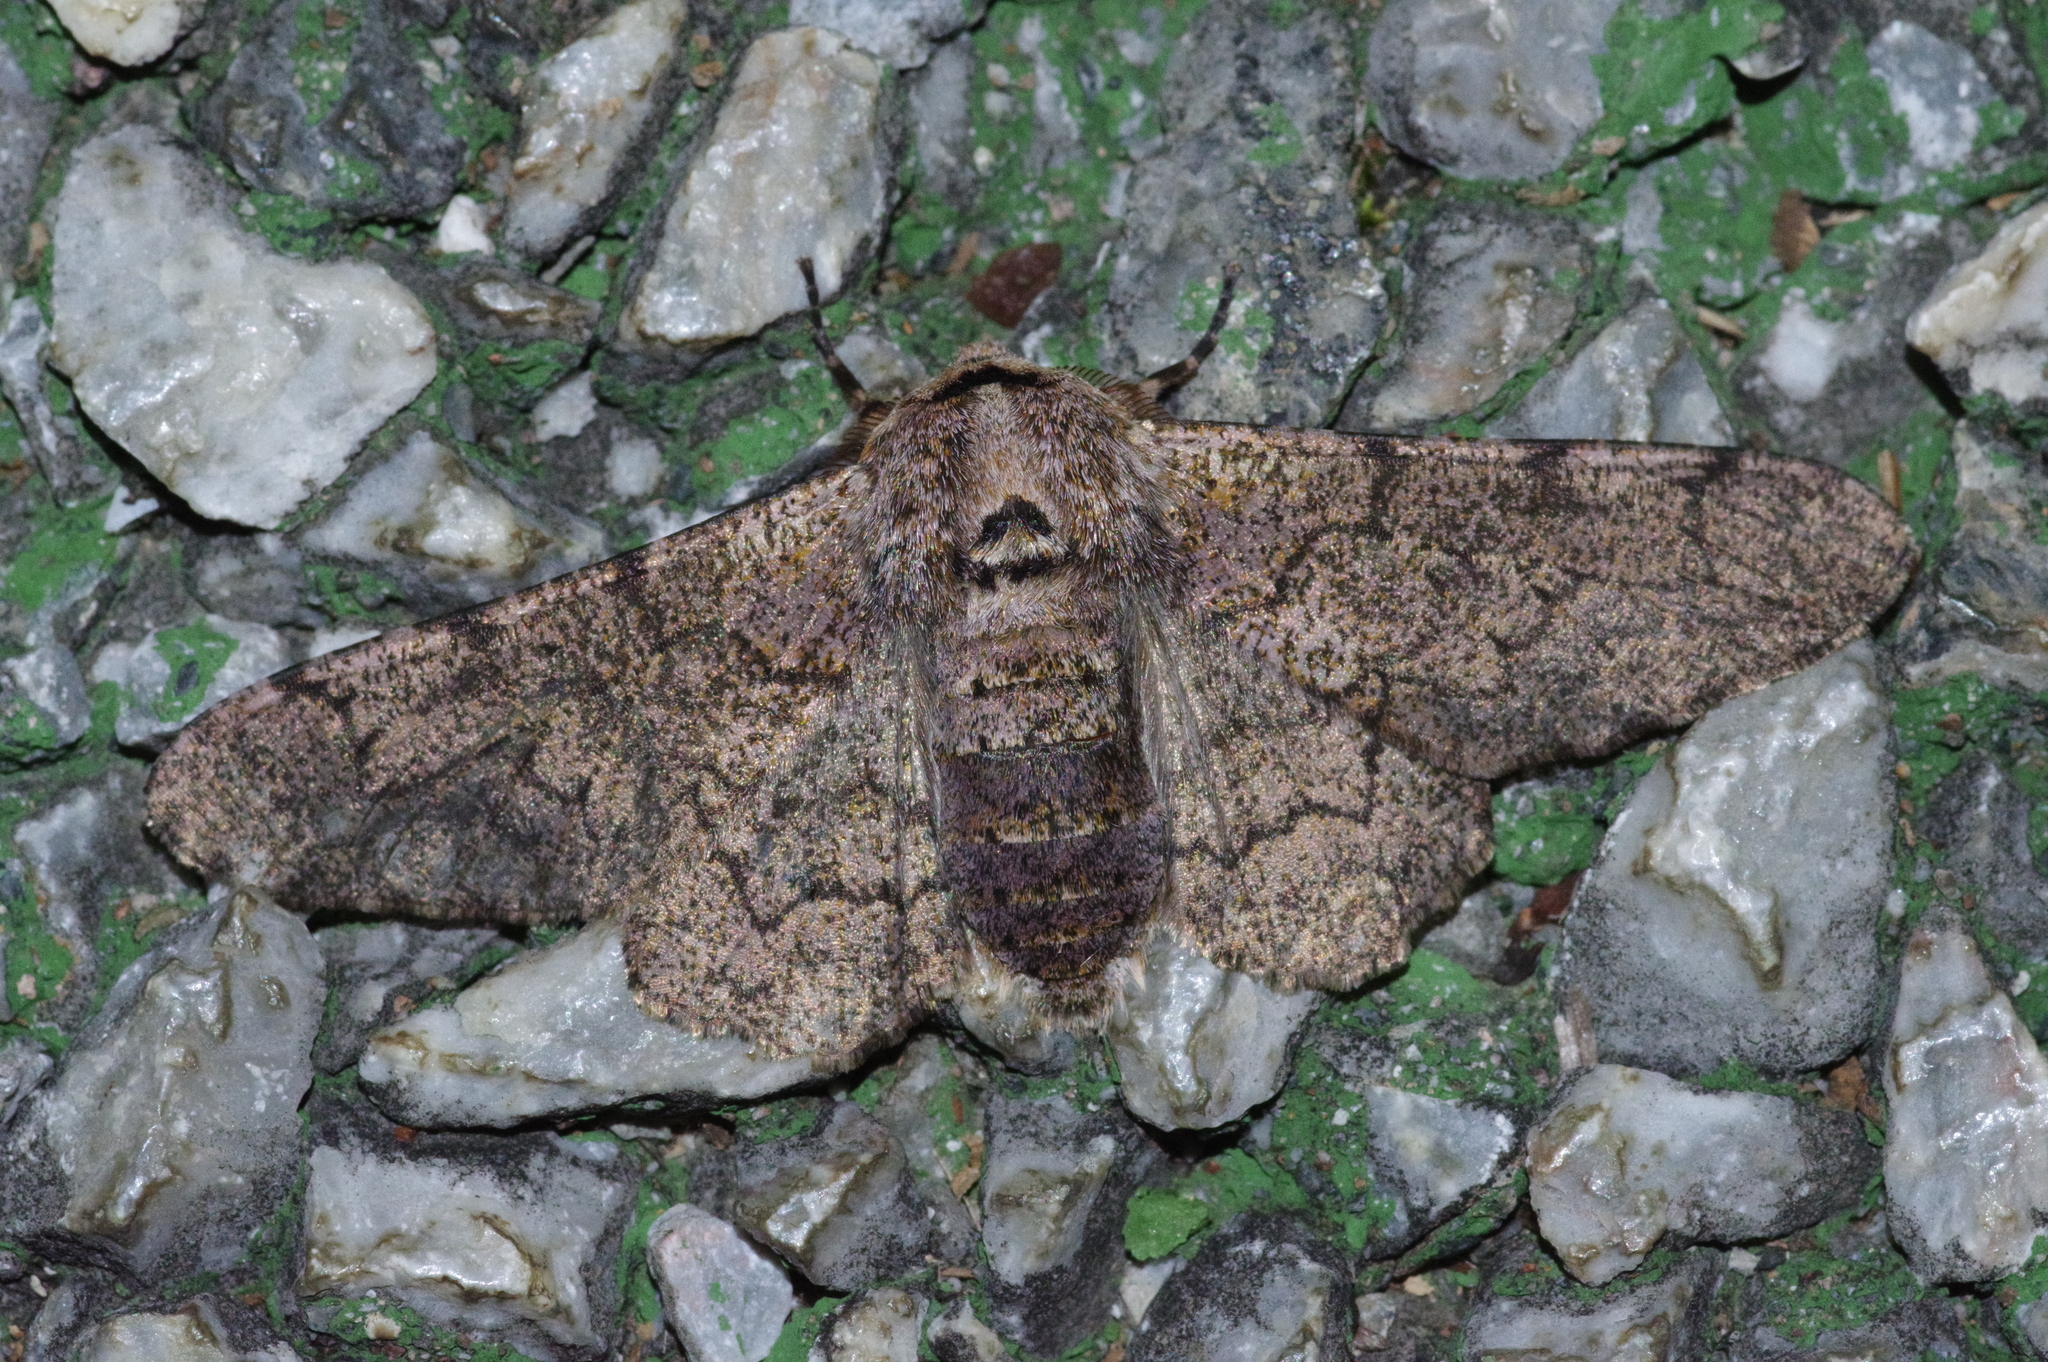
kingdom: Animalia
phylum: Arthropoda
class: Insecta
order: Lepidoptera
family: Geometridae
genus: Biston
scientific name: Biston robustum
